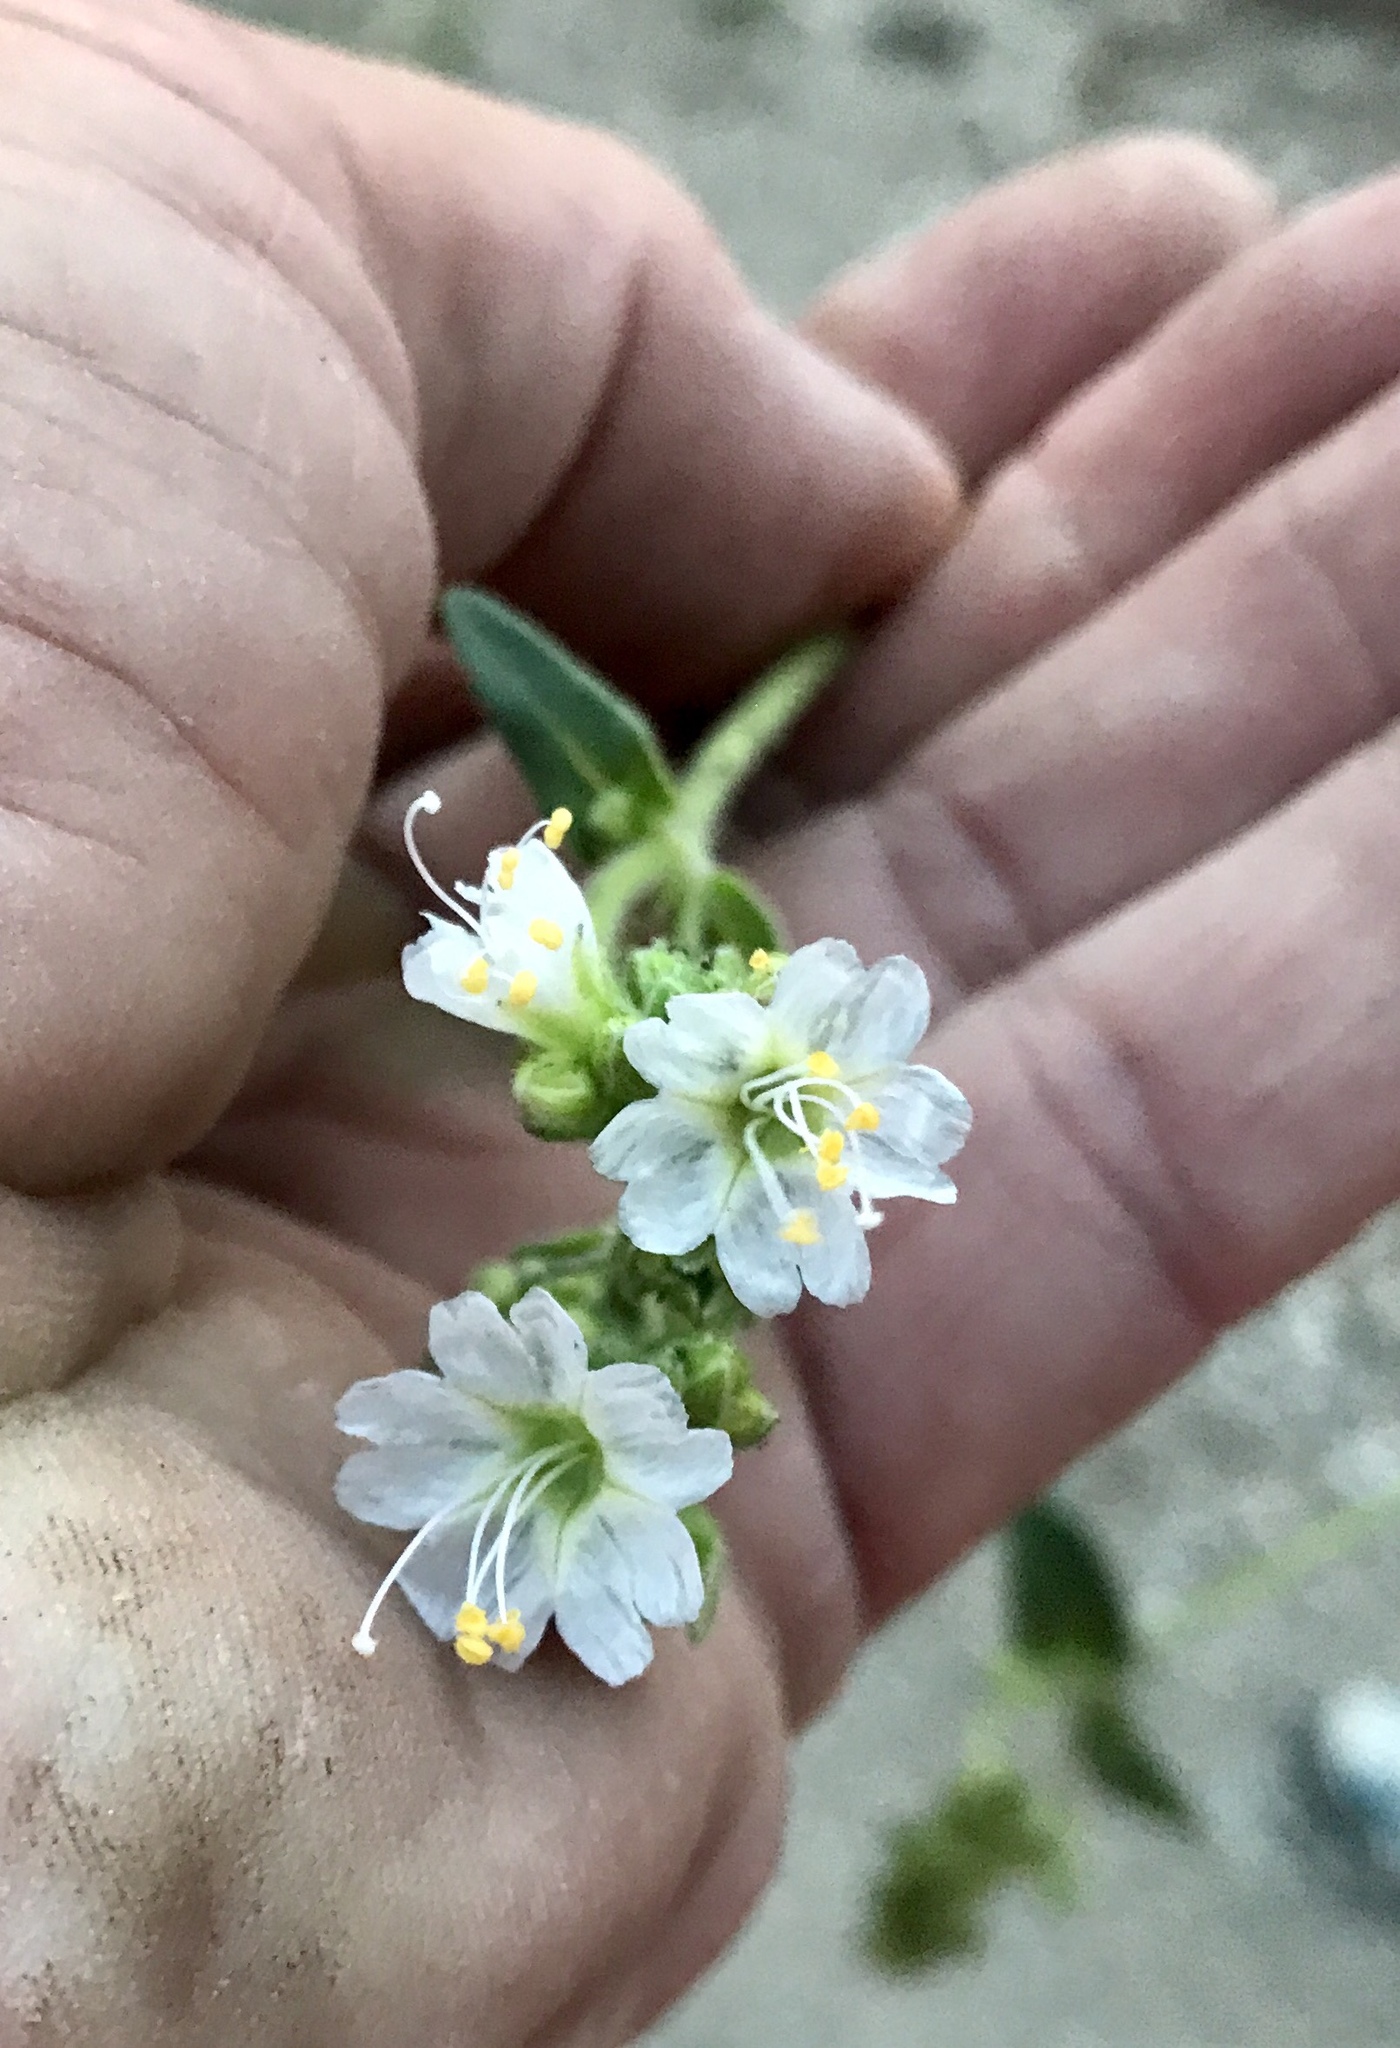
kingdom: Plantae
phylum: Tracheophyta
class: Magnoliopsida
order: Caryophyllales
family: Nyctaginaceae
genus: Mirabilis
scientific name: Mirabilis albida
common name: Hairy four-o'clock
